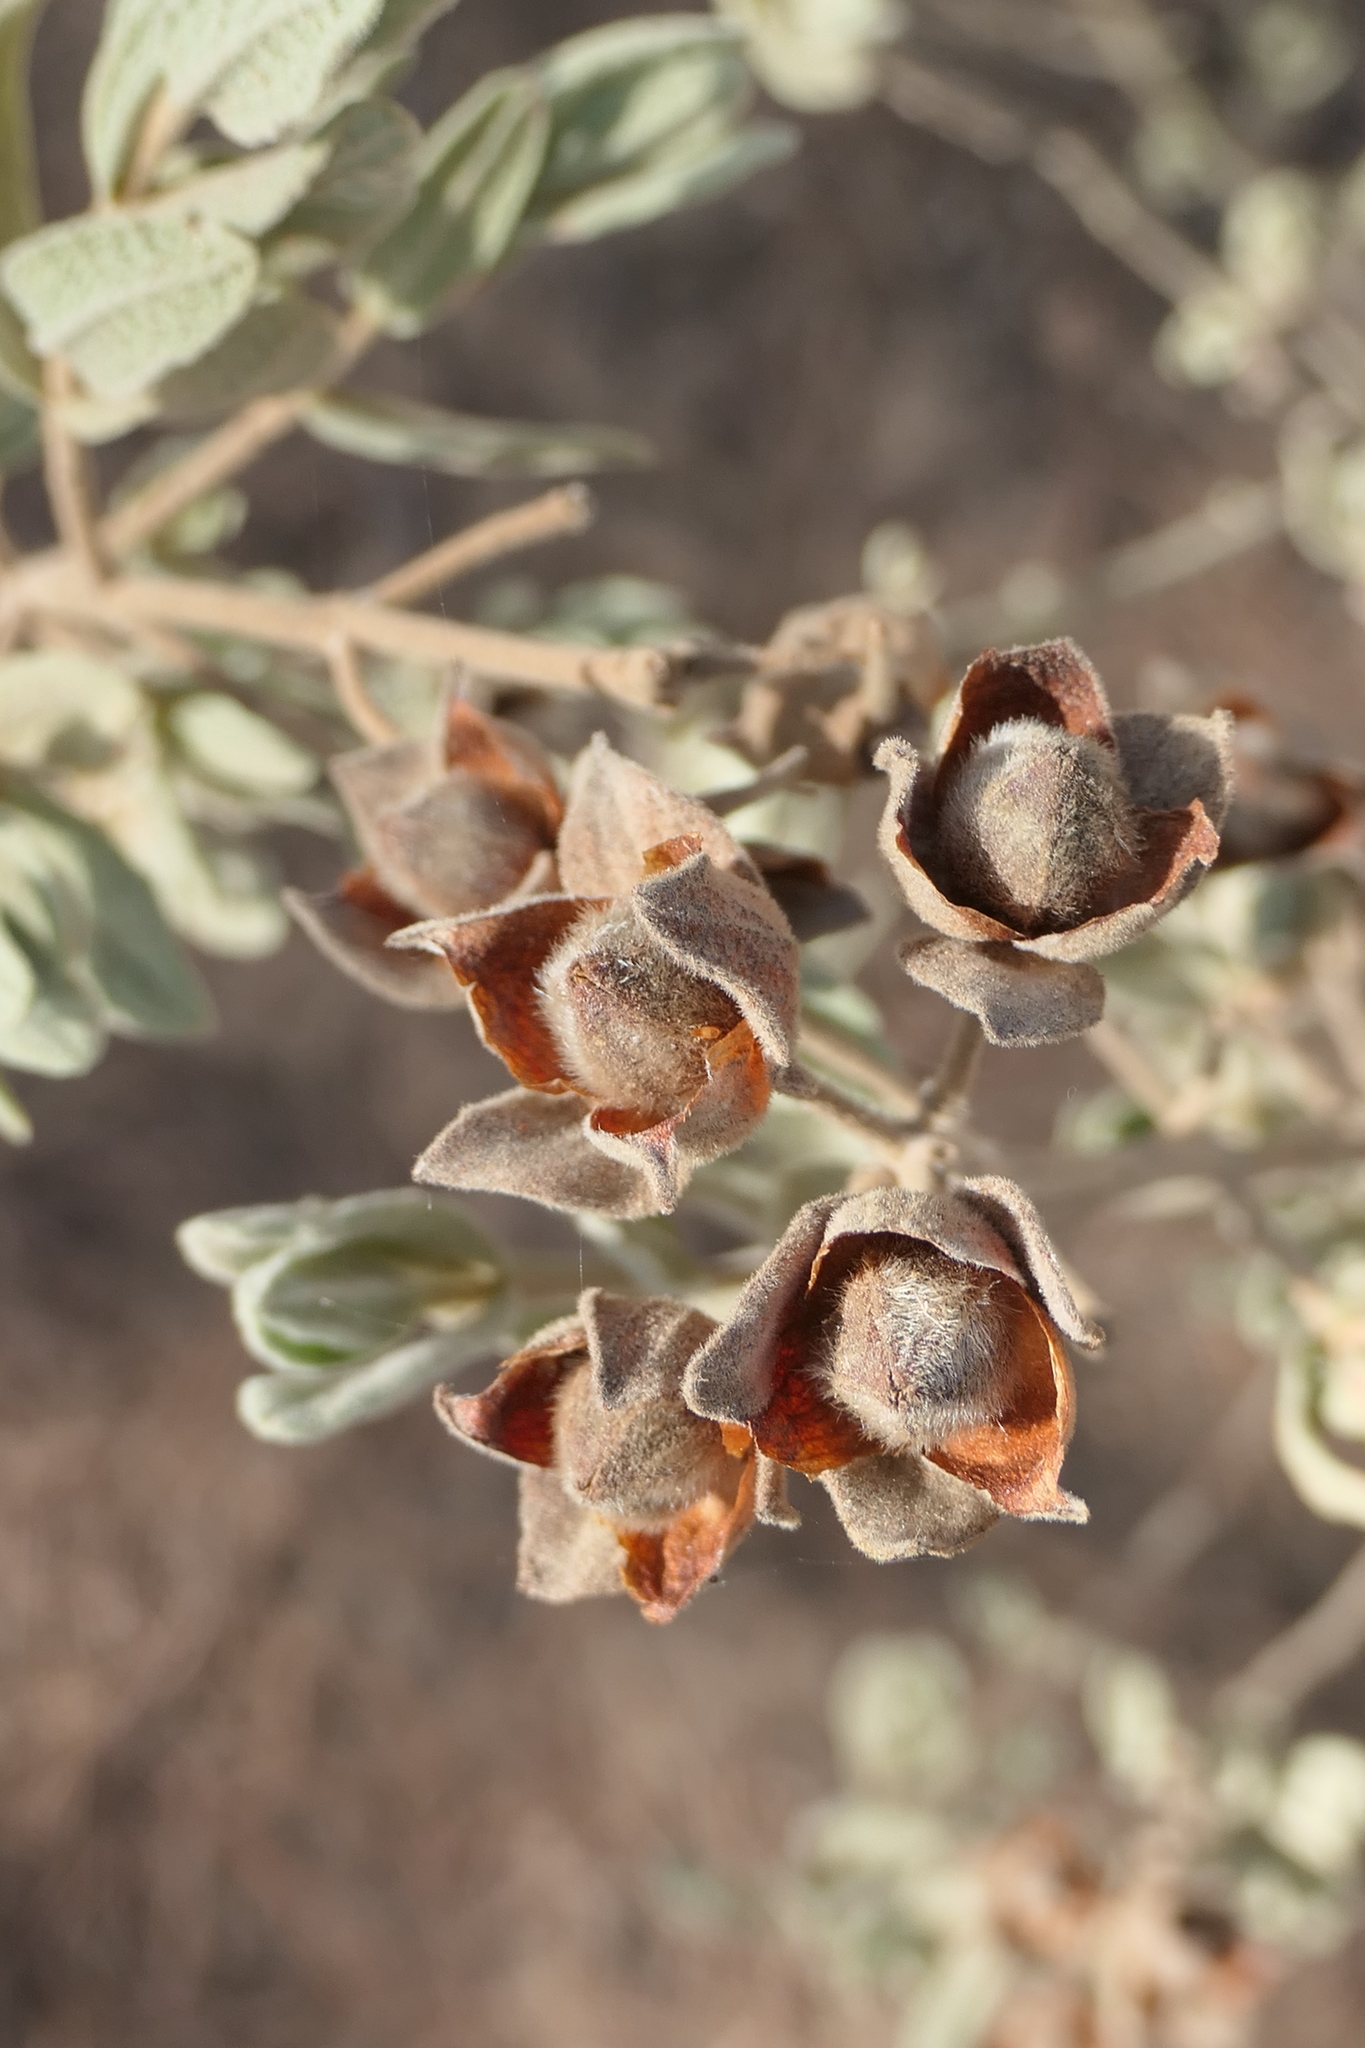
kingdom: Plantae
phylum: Tracheophyta
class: Magnoliopsida
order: Malvales
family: Cistaceae
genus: Cistus
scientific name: Cistus albidus
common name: White-leaf rock-rose
